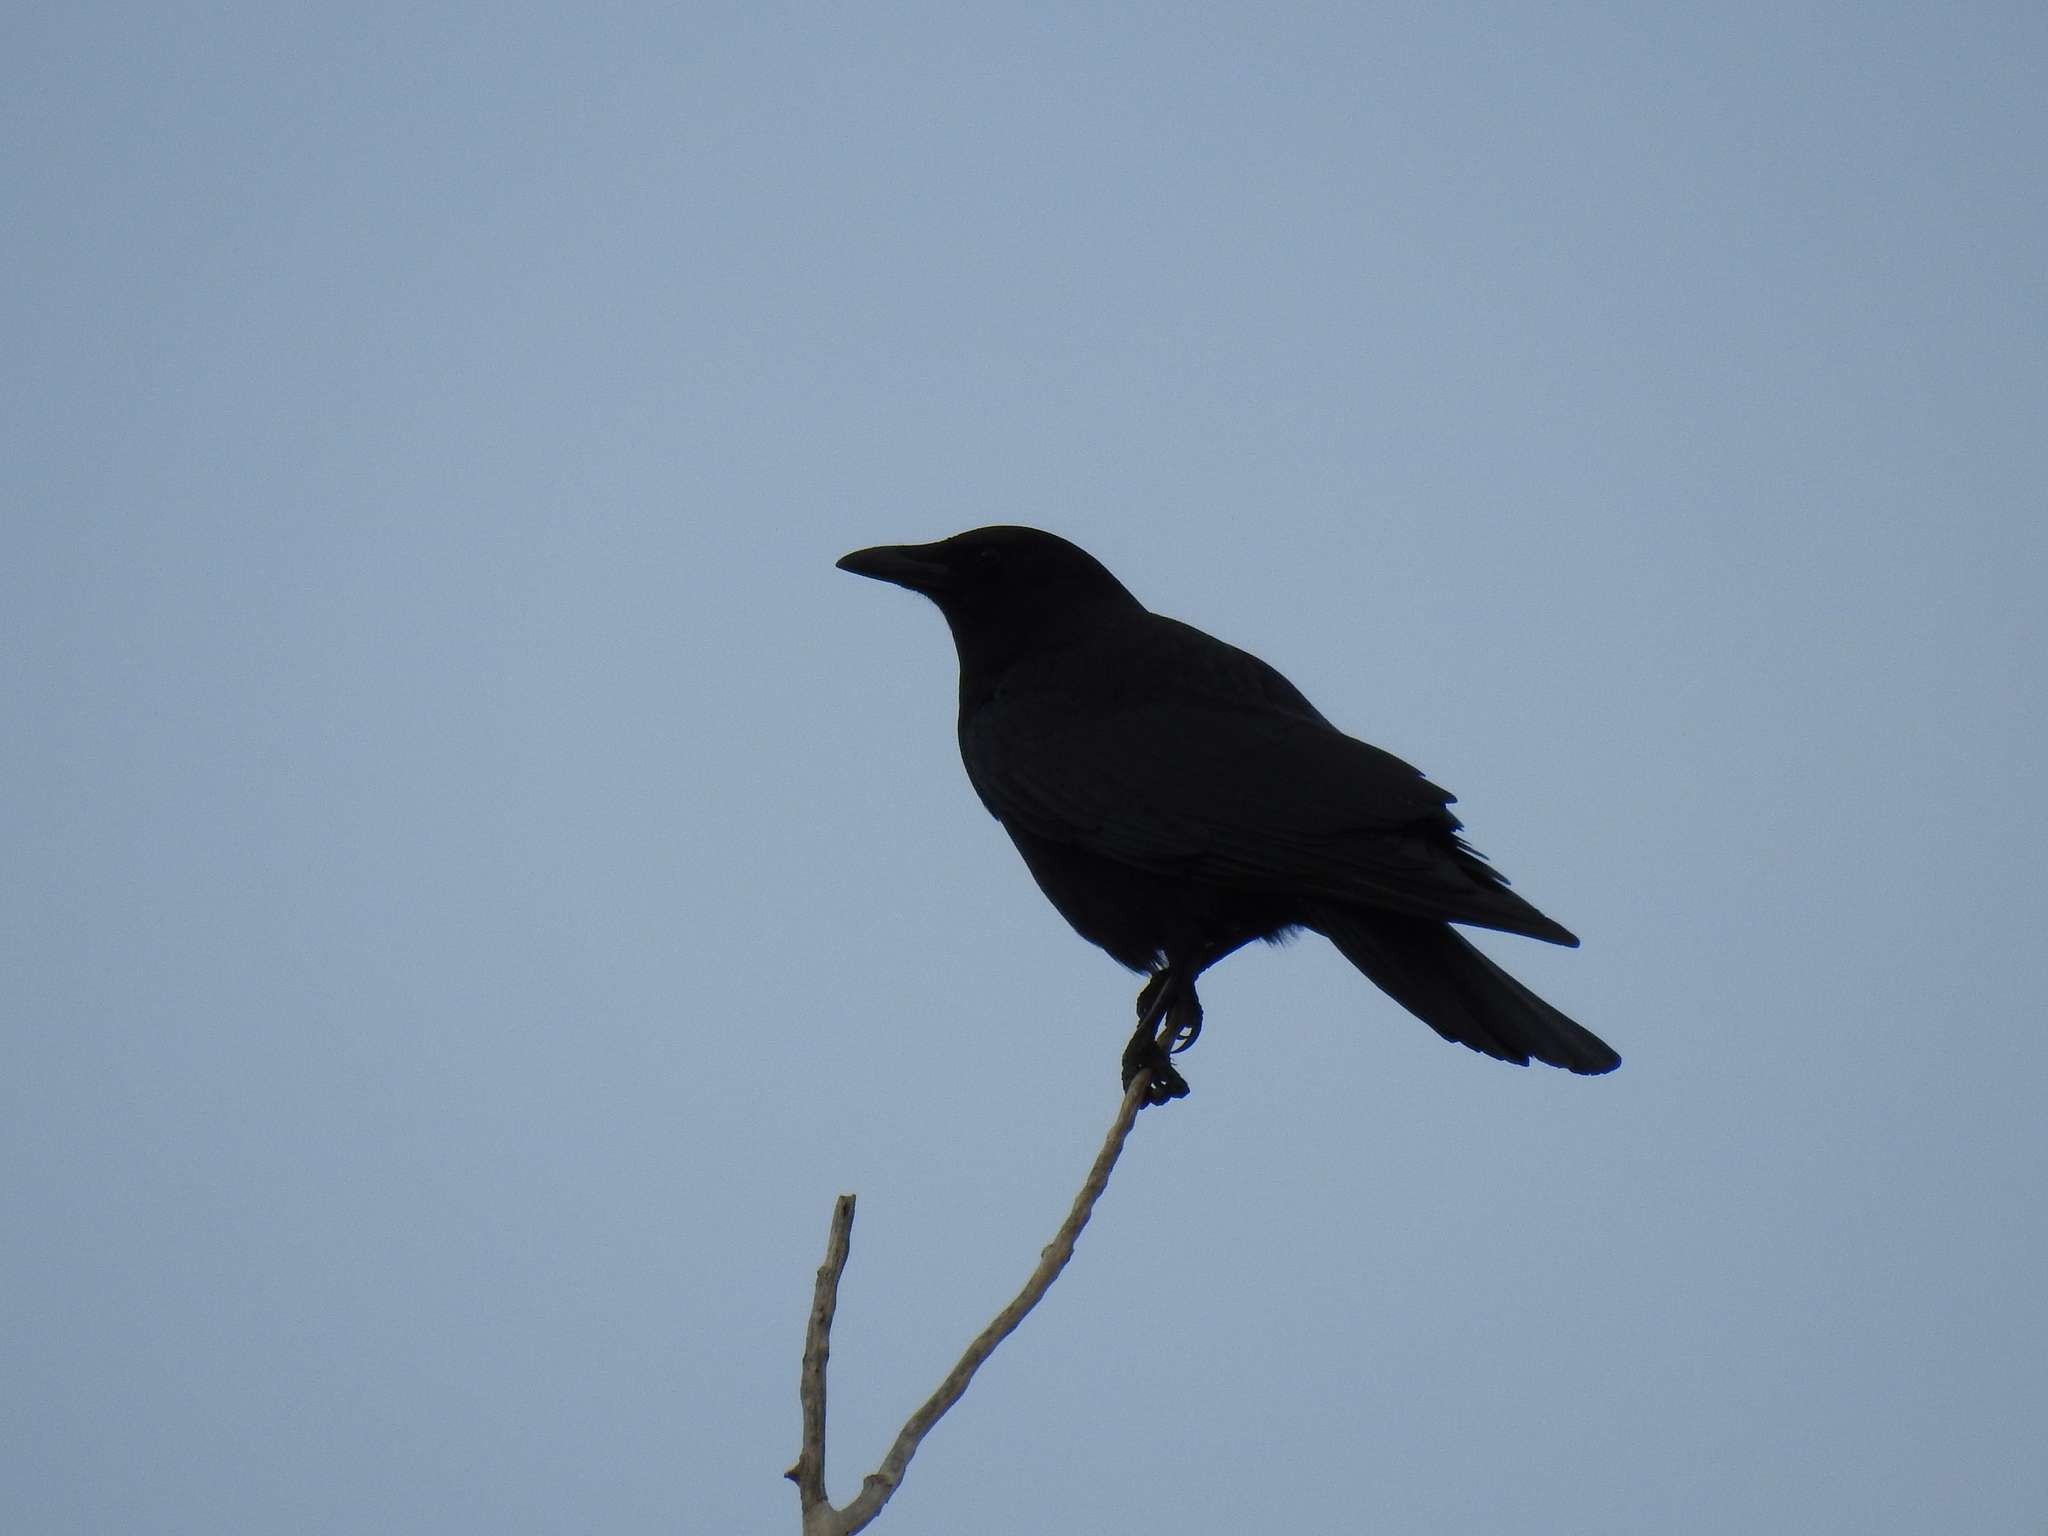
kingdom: Animalia
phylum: Chordata
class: Aves
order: Passeriformes
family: Corvidae
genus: Corvus
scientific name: Corvus brachyrhynchos
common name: American crow
